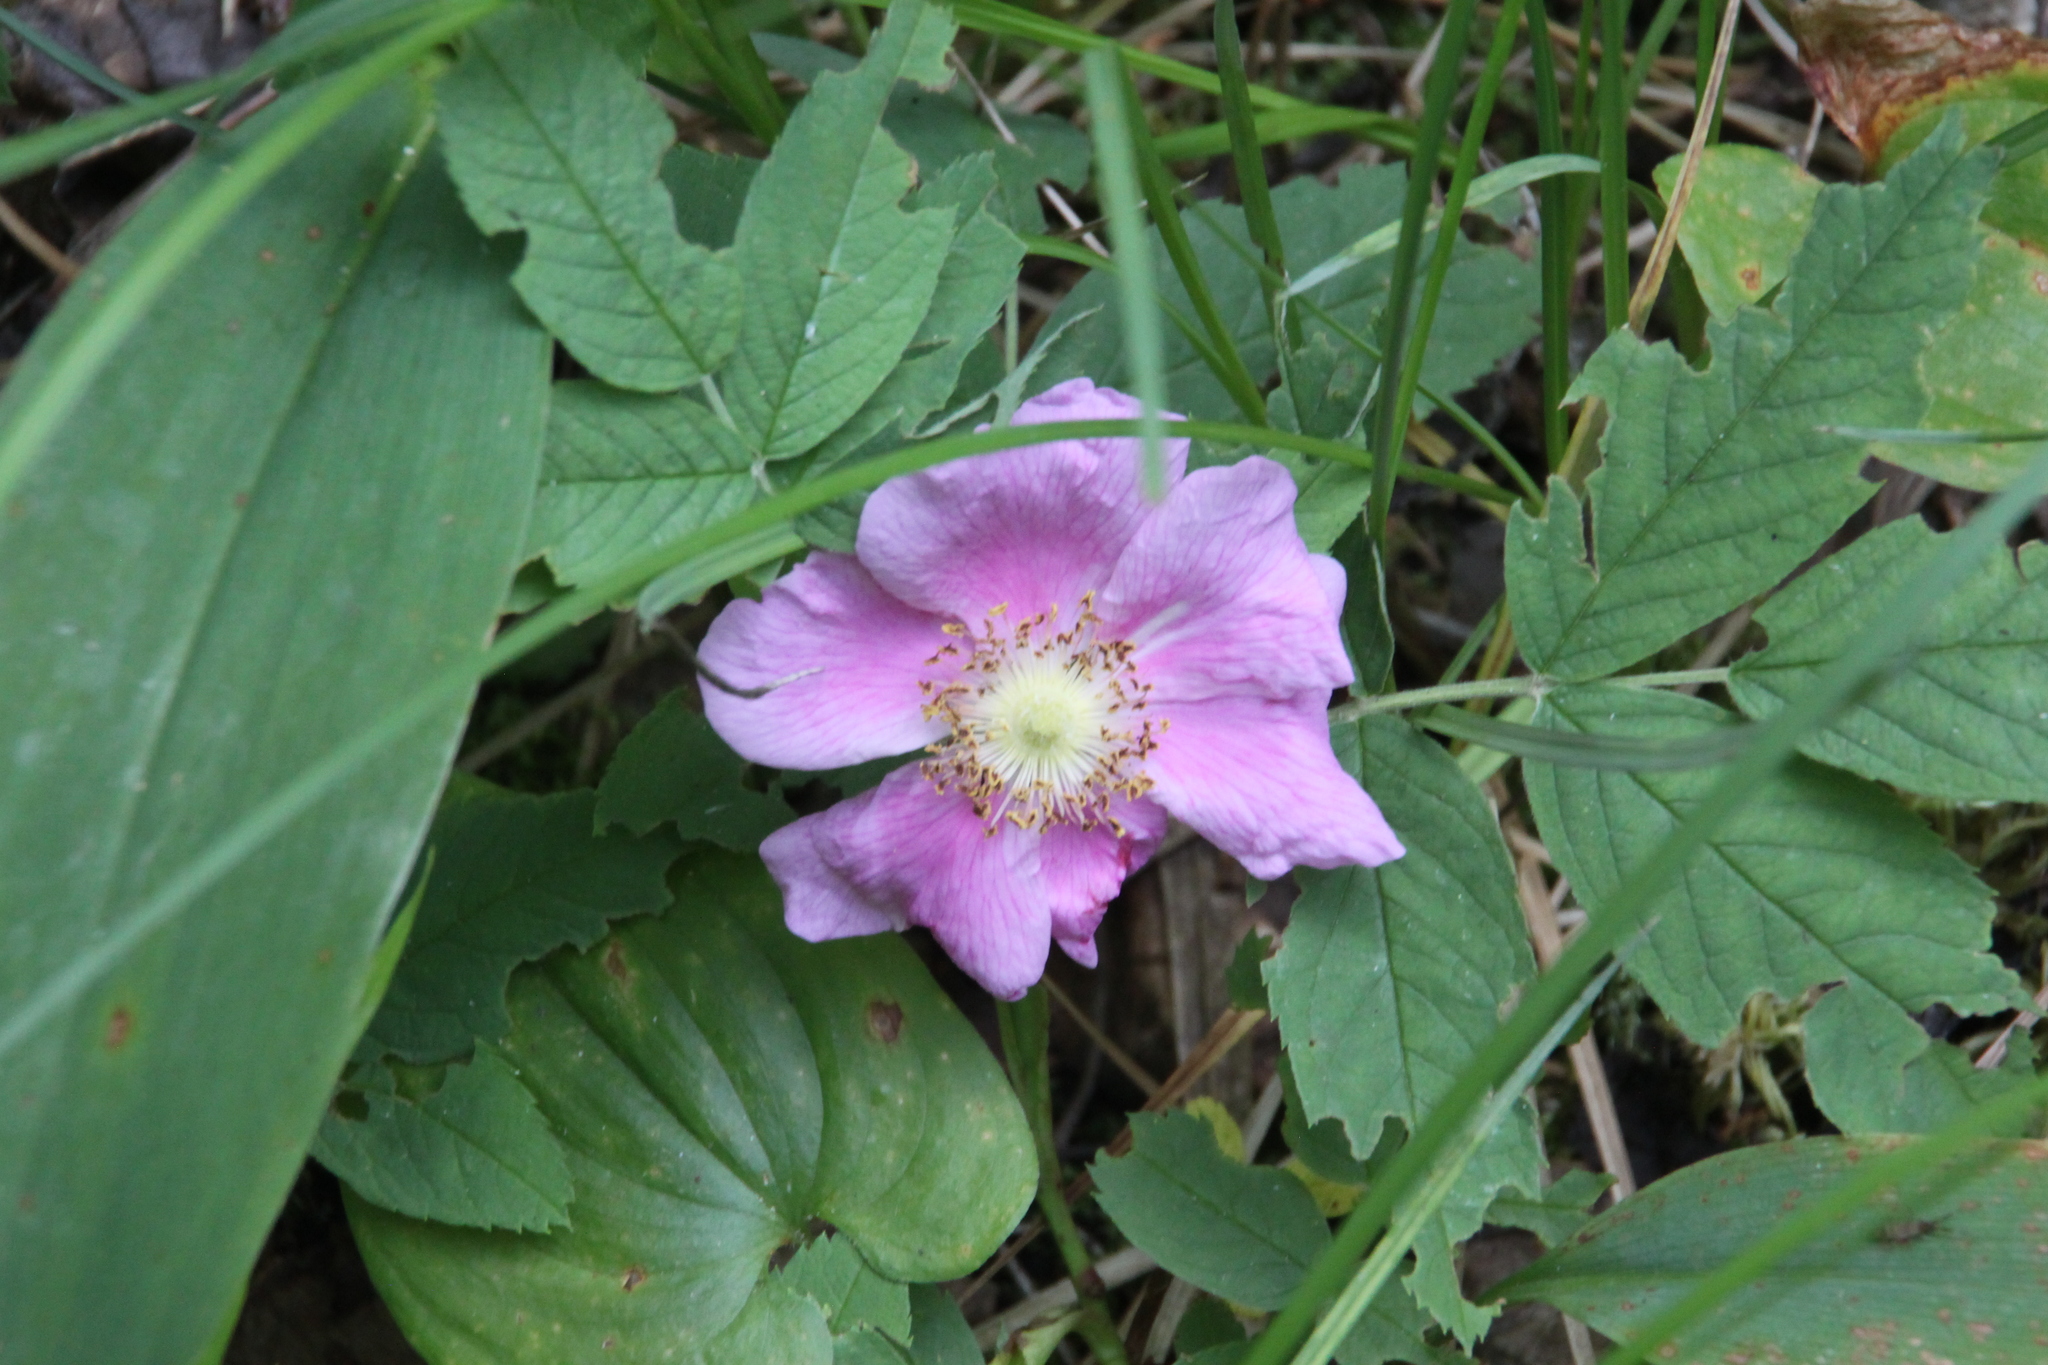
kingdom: Plantae
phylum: Tracheophyta
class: Magnoliopsida
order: Rosales
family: Rosaceae
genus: Rosa
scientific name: Rosa majalis
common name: Cinnamon rose
